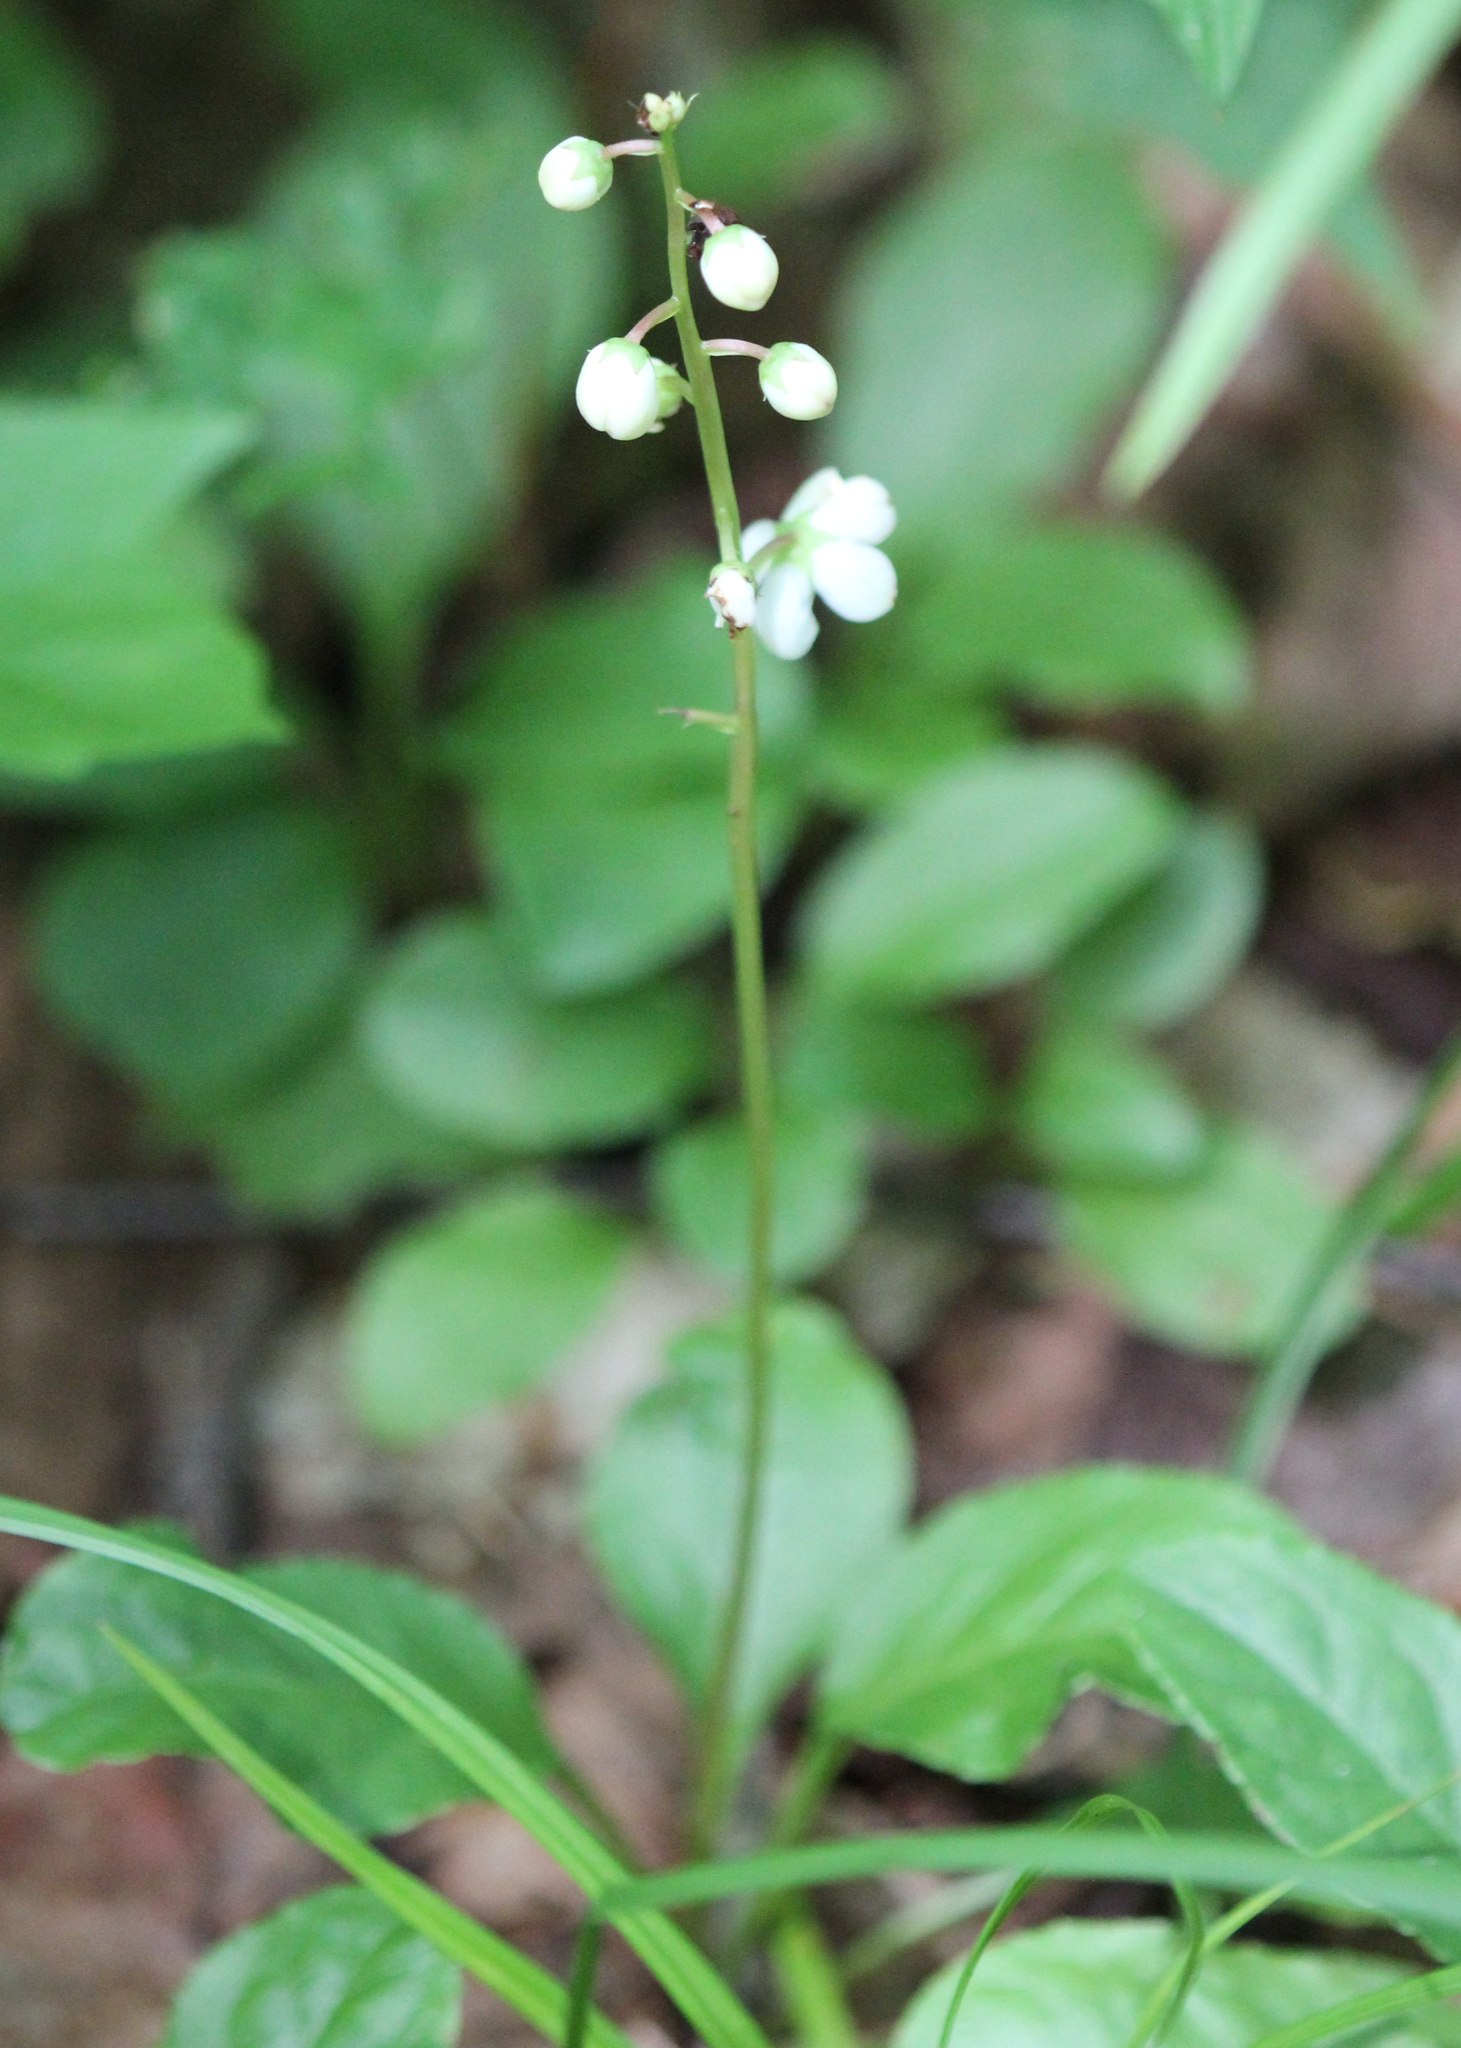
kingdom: Plantae
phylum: Tracheophyta
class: Magnoliopsida
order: Ericales
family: Ericaceae
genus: Pyrola
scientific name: Pyrola elliptica
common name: Shinleaf
